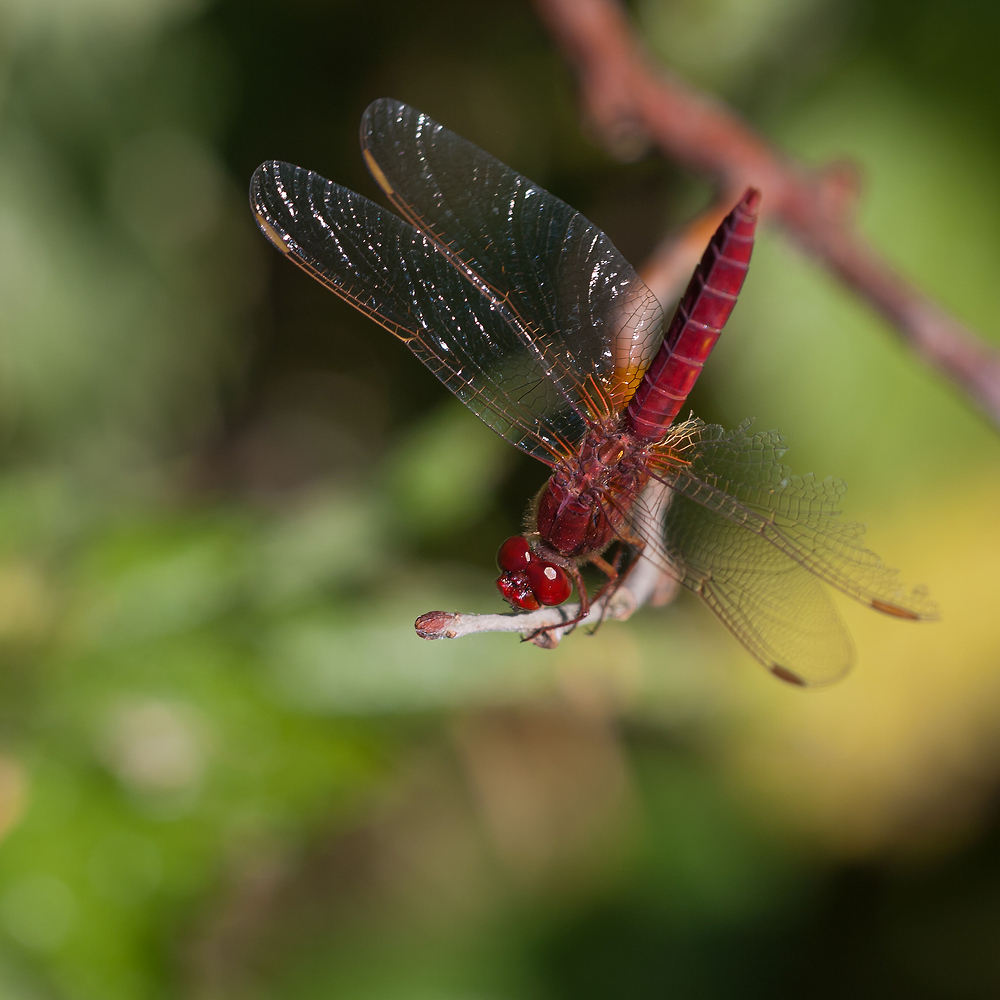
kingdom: Animalia
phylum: Arthropoda
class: Insecta
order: Odonata
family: Libellulidae
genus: Crocothemis
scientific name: Crocothemis erythraea
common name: Scarlet dragonfly
